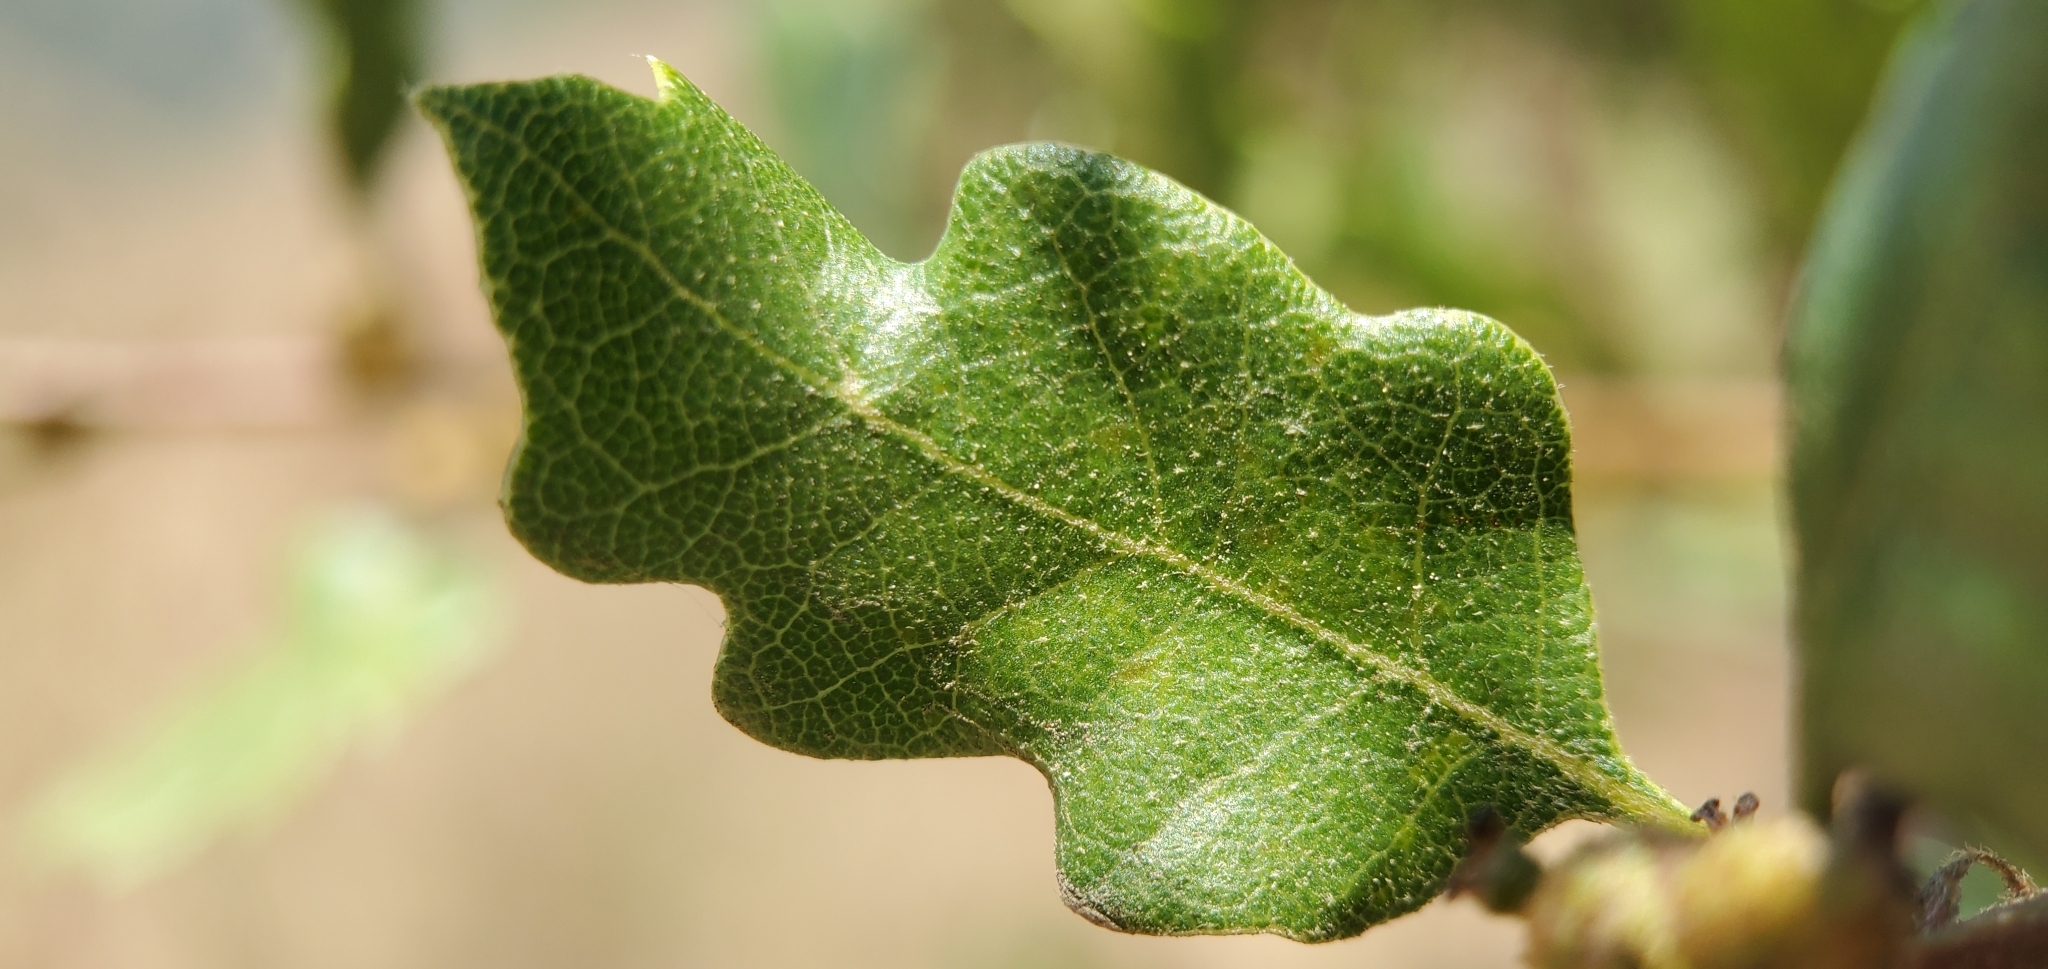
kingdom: Plantae
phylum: Tracheophyta
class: Magnoliopsida
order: Fagales
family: Fagaceae
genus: Quercus
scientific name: Quercus berberidifolia
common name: California scrub oak
